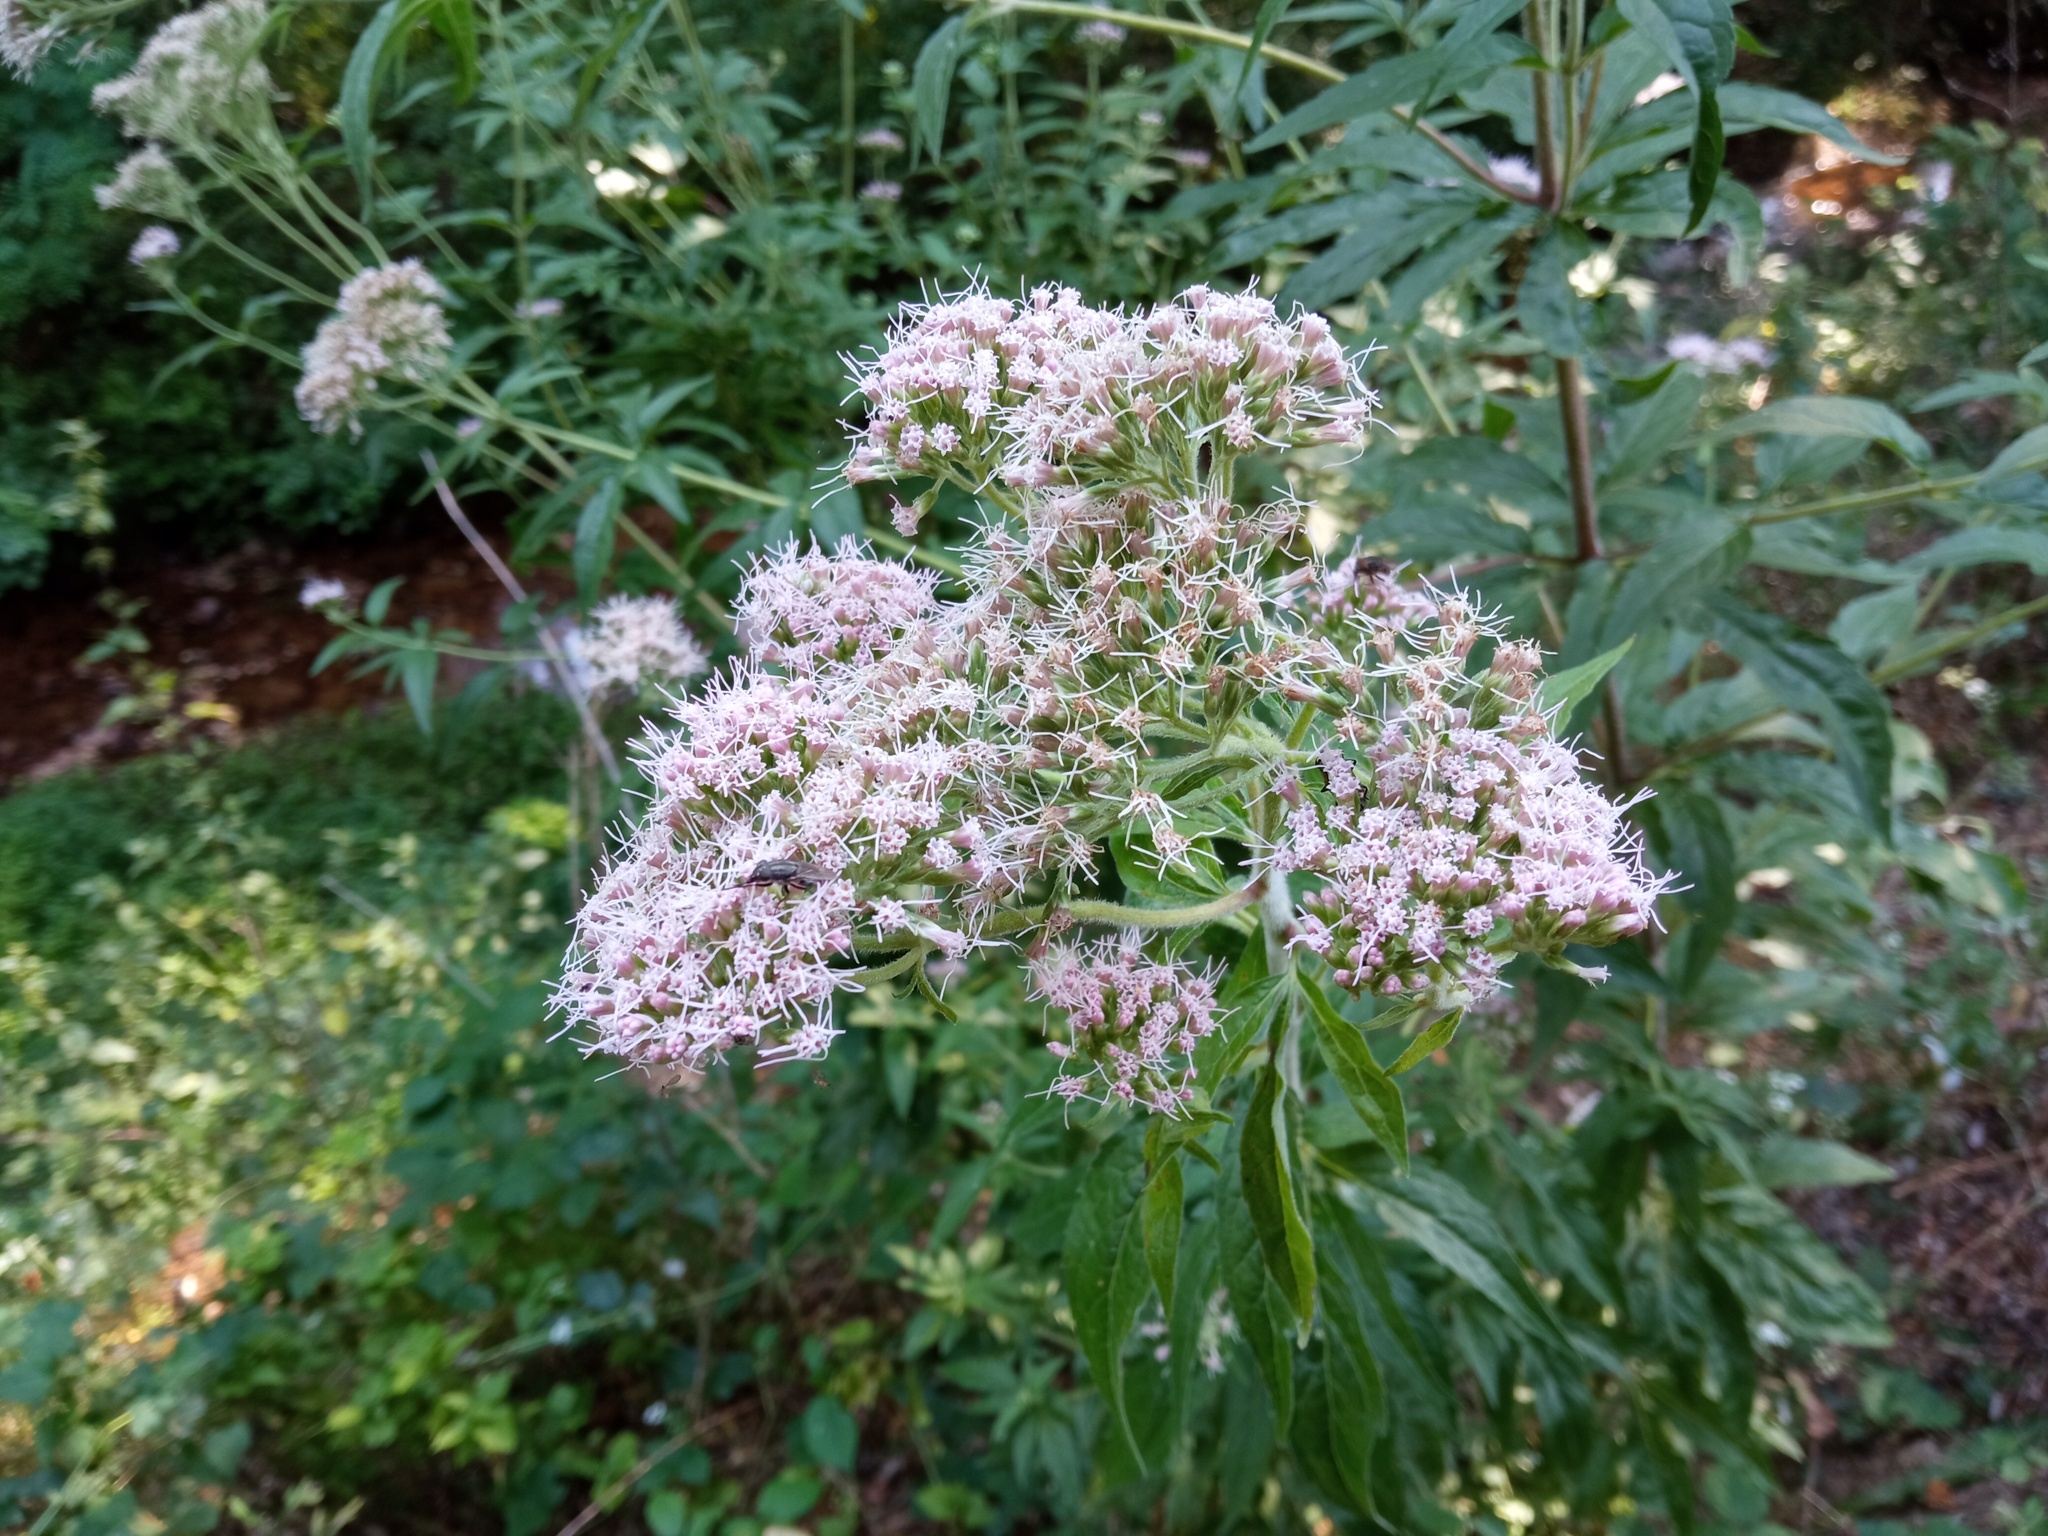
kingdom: Plantae
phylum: Tracheophyta
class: Magnoliopsida
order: Asterales
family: Asteraceae
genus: Eupatorium
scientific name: Eupatorium cannabinum
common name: Hemp-agrimony
